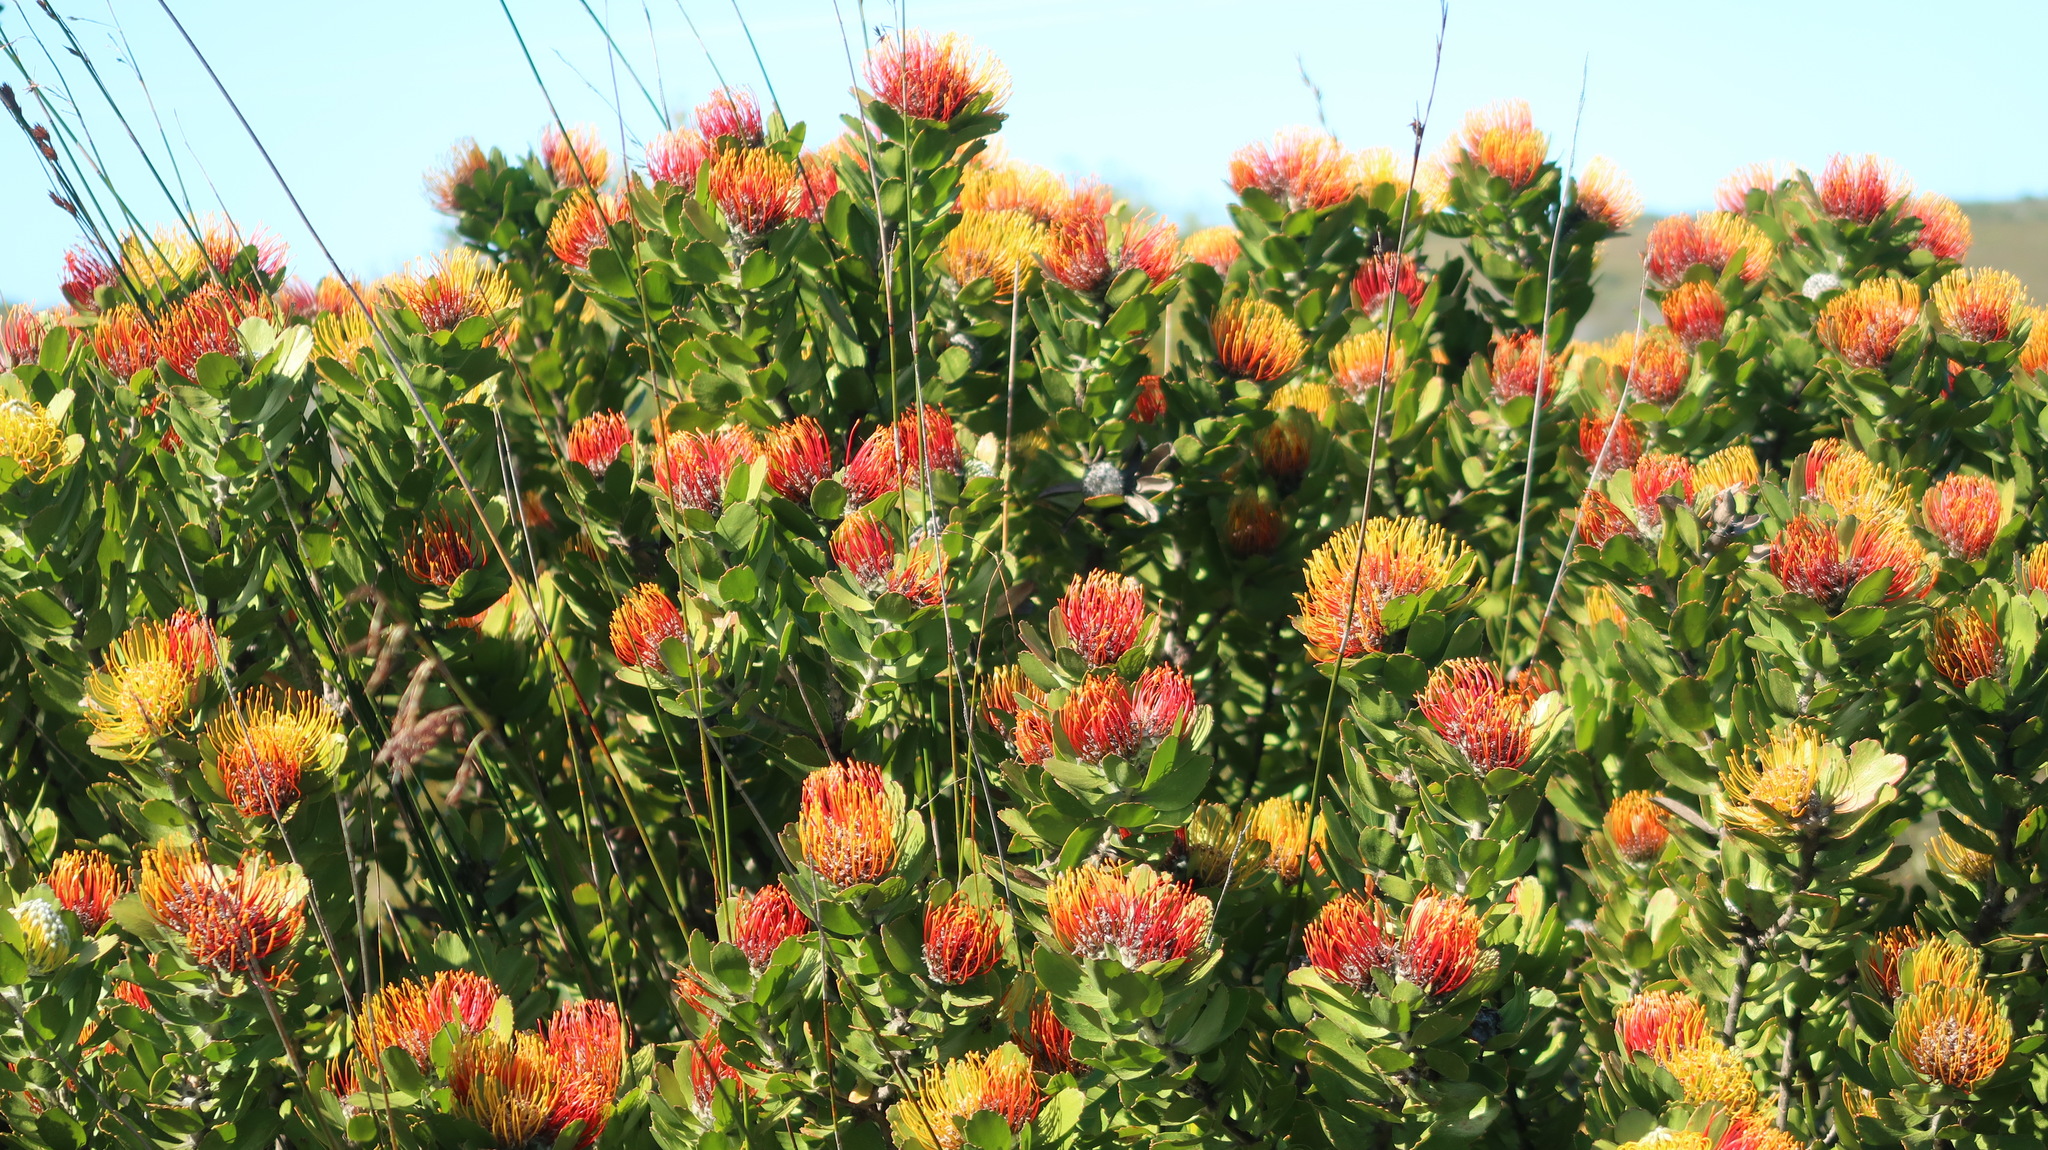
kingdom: Plantae
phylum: Tracheophyta
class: Magnoliopsida
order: Proteales
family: Proteaceae
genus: Leucospermum
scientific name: Leucospermum praecox
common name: Mossel bay pincushion
